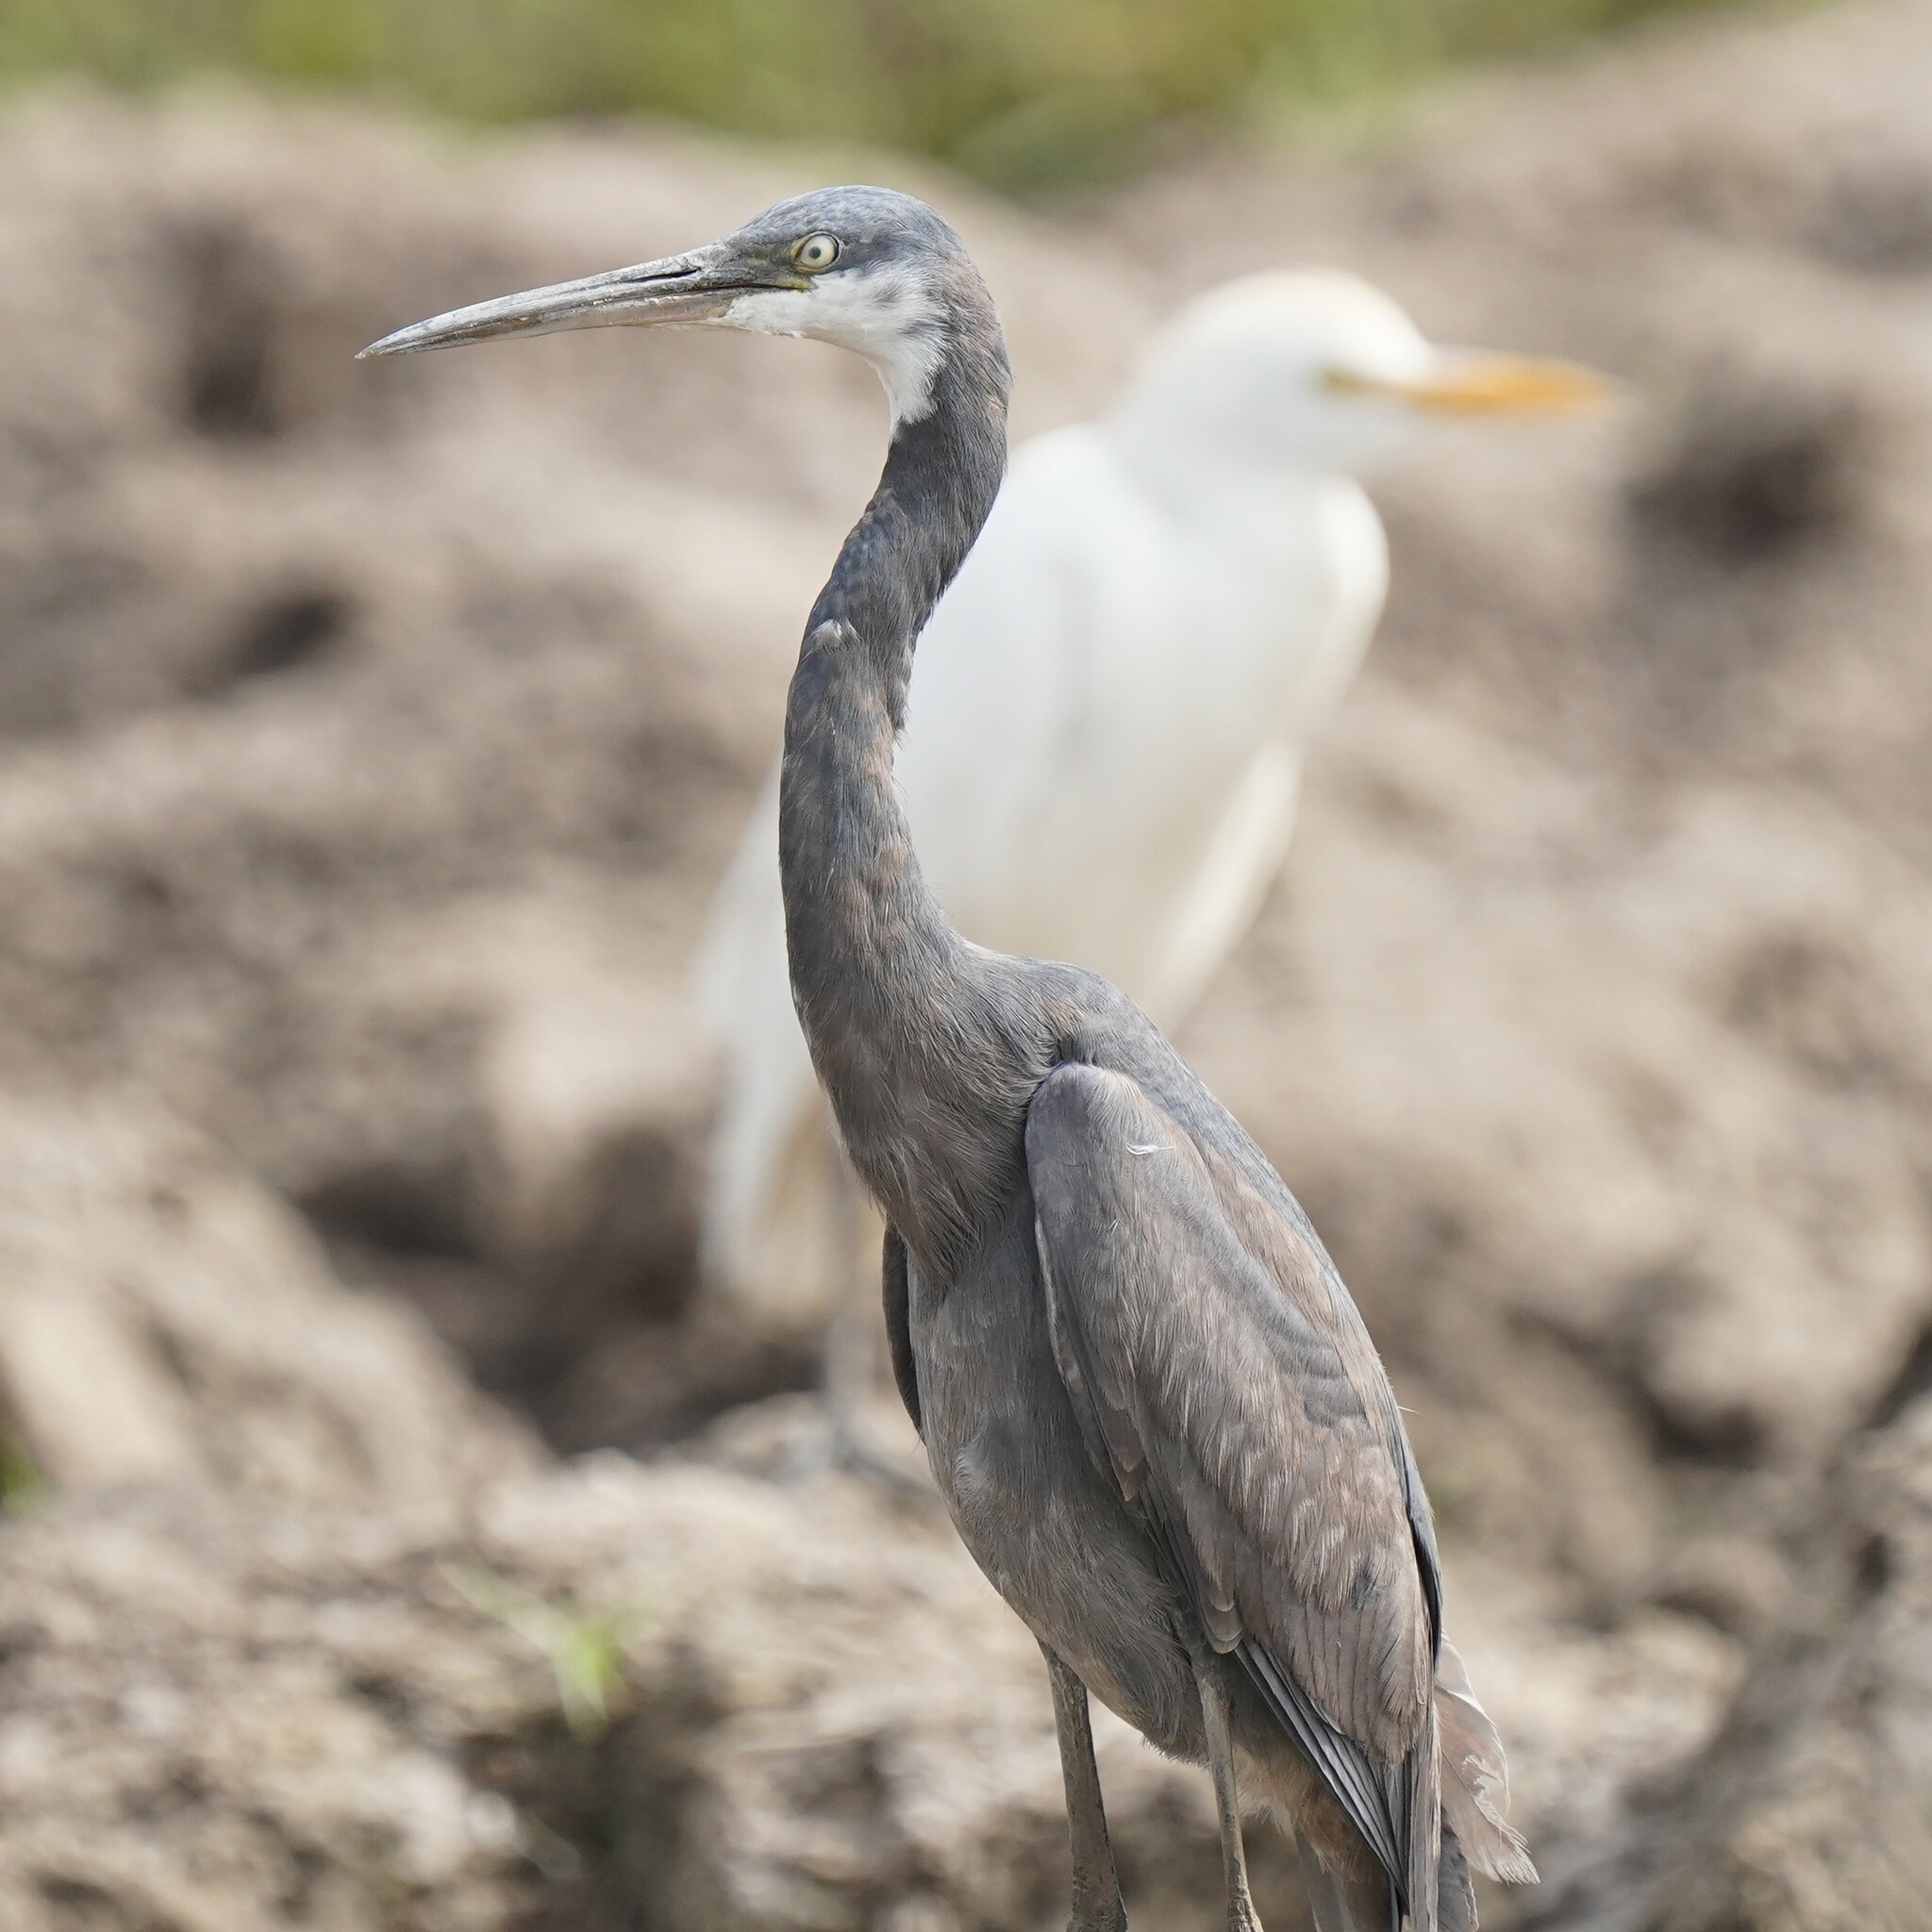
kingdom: Animalia
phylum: Chordata
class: Aves
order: Pelecaniformes
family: Ardeidae
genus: Egretta
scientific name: Egretta gularis
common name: Western reef-heron
